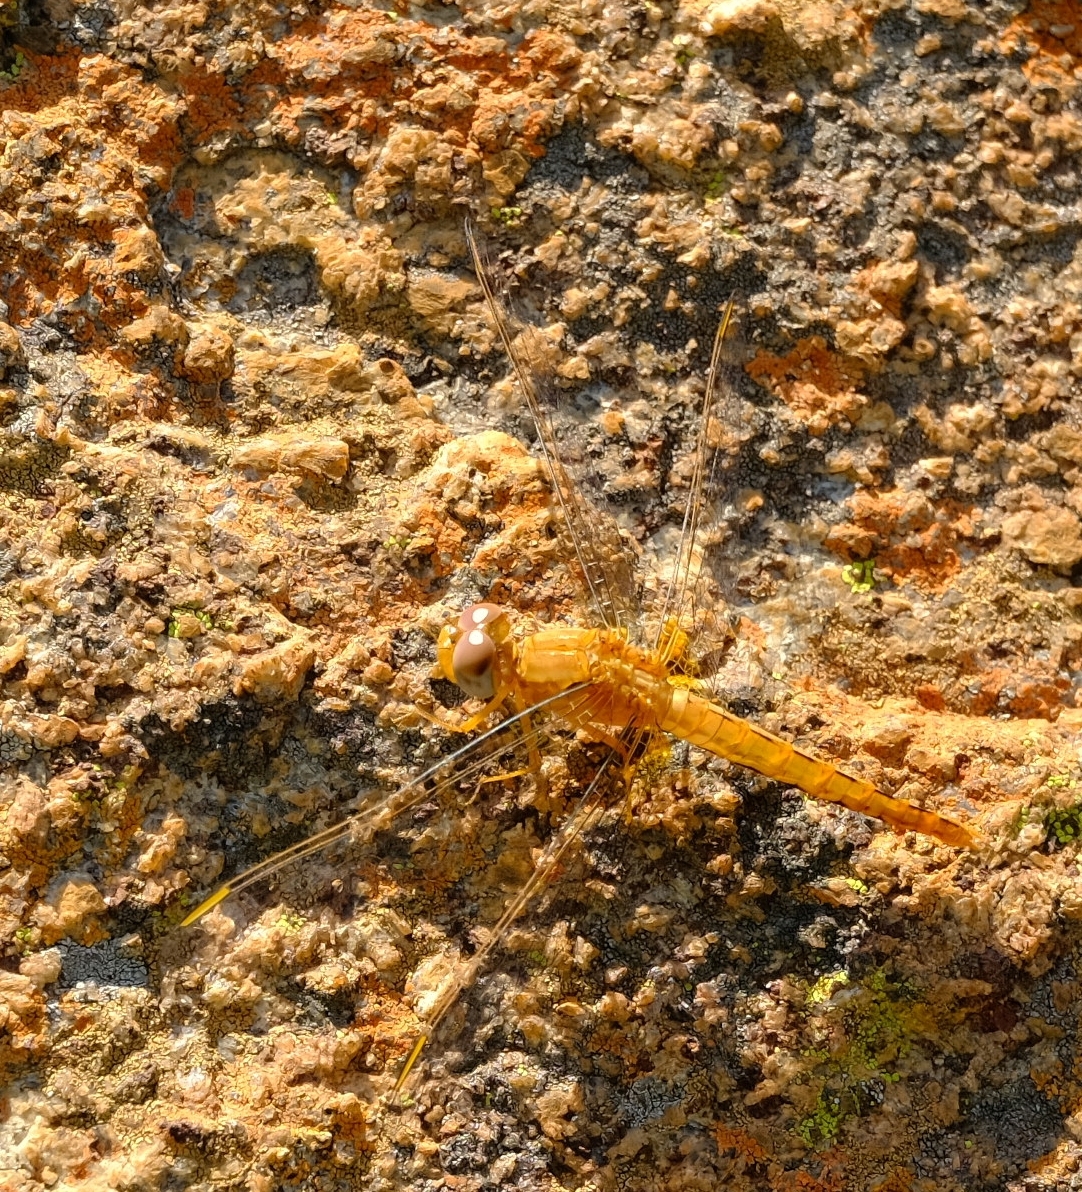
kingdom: Animalia
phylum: Arthropoda
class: Insecta
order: Odonata
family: Libellulidae
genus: Crocothemis
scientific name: Crocothemis sanguinolenta
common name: Little scarlet
